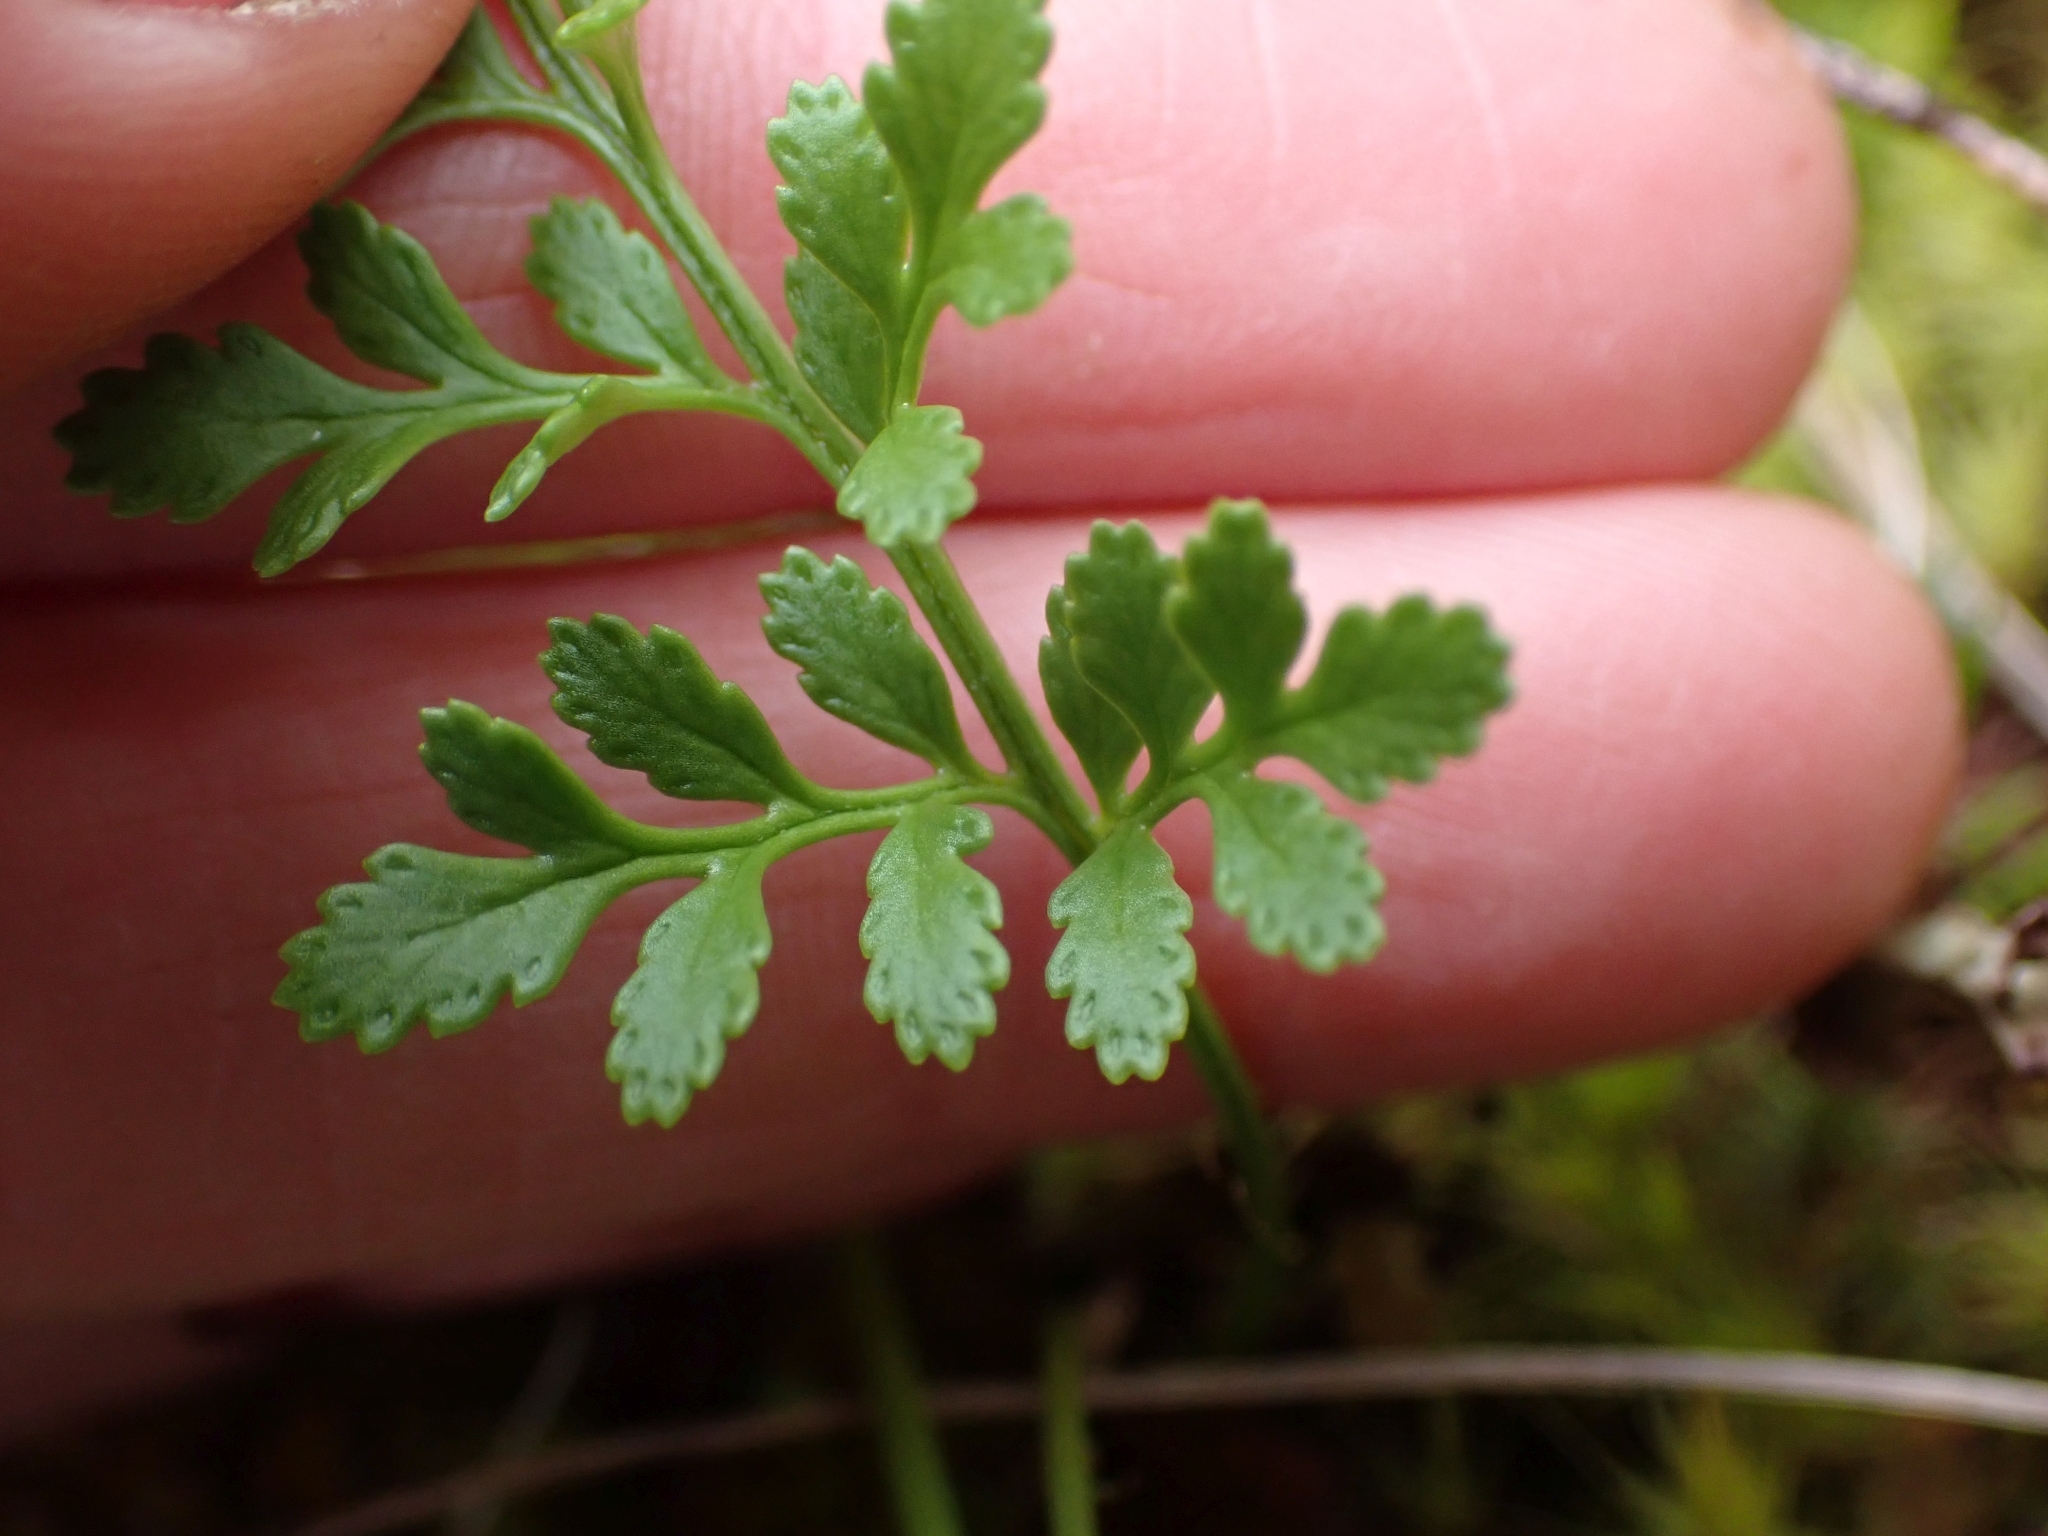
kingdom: Plantae
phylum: Tracheophyta
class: Polypodiopsida
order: Polypodiales
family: Pteridaceae
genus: Cryptogramma
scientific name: Cryptogramma acrostichoides
